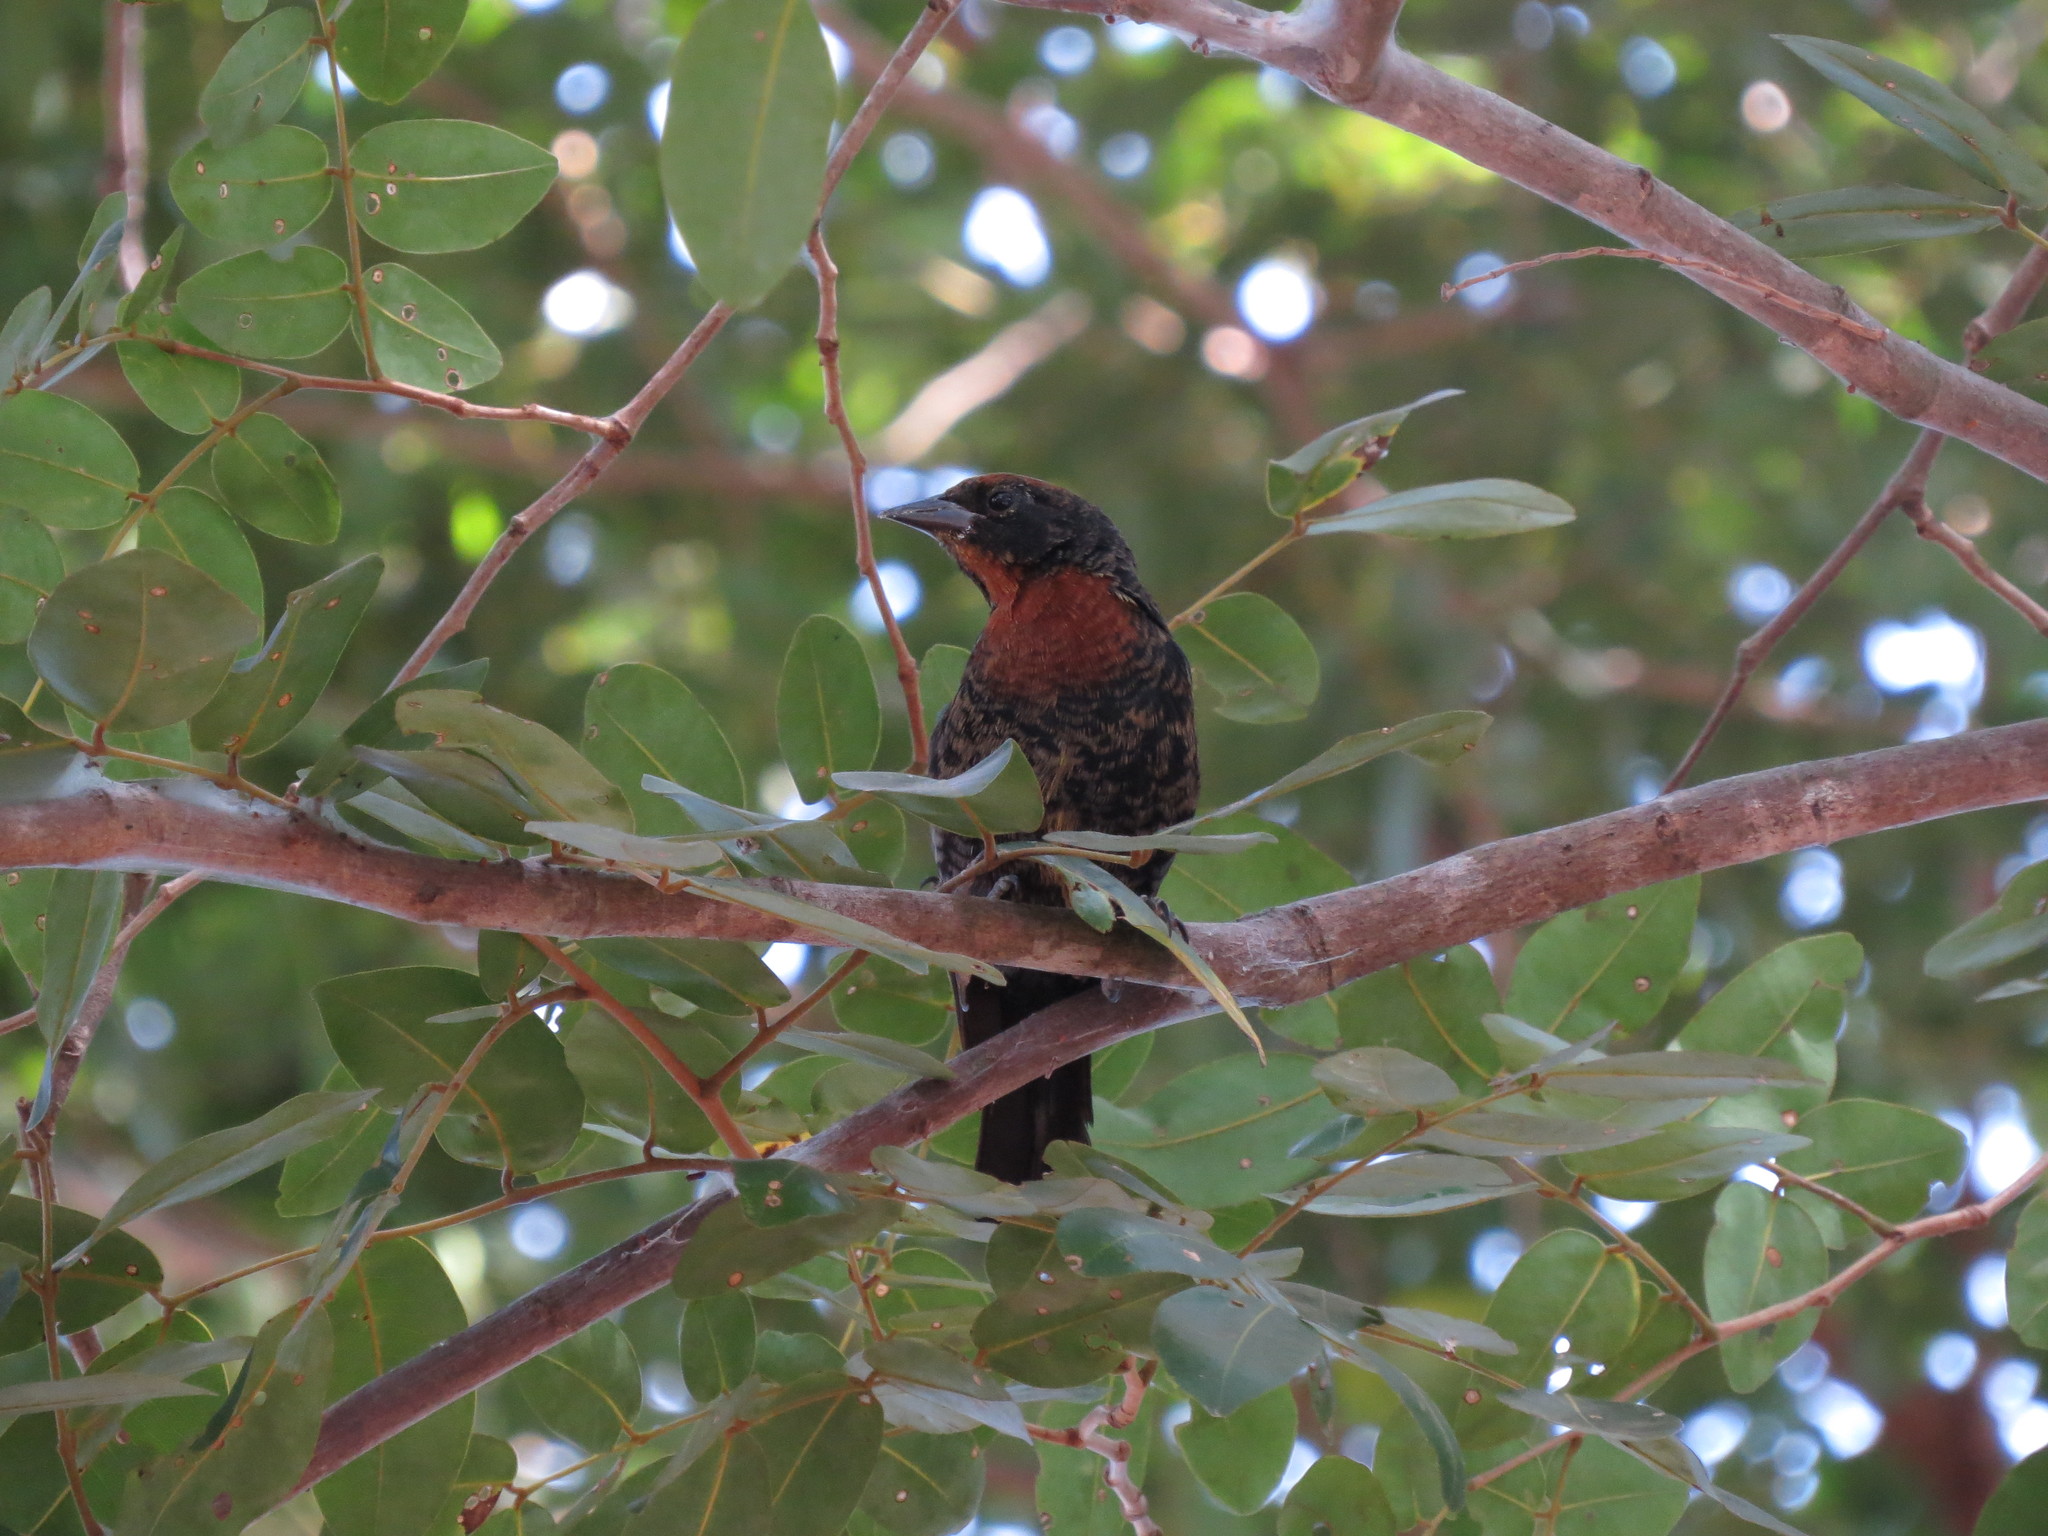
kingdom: Animalia
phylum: Chordata
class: Aves
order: Passeriformes
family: Icteridae
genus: Chrysomus
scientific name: Chrysomus ruficapillus
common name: Chestnut-capped blackbird
